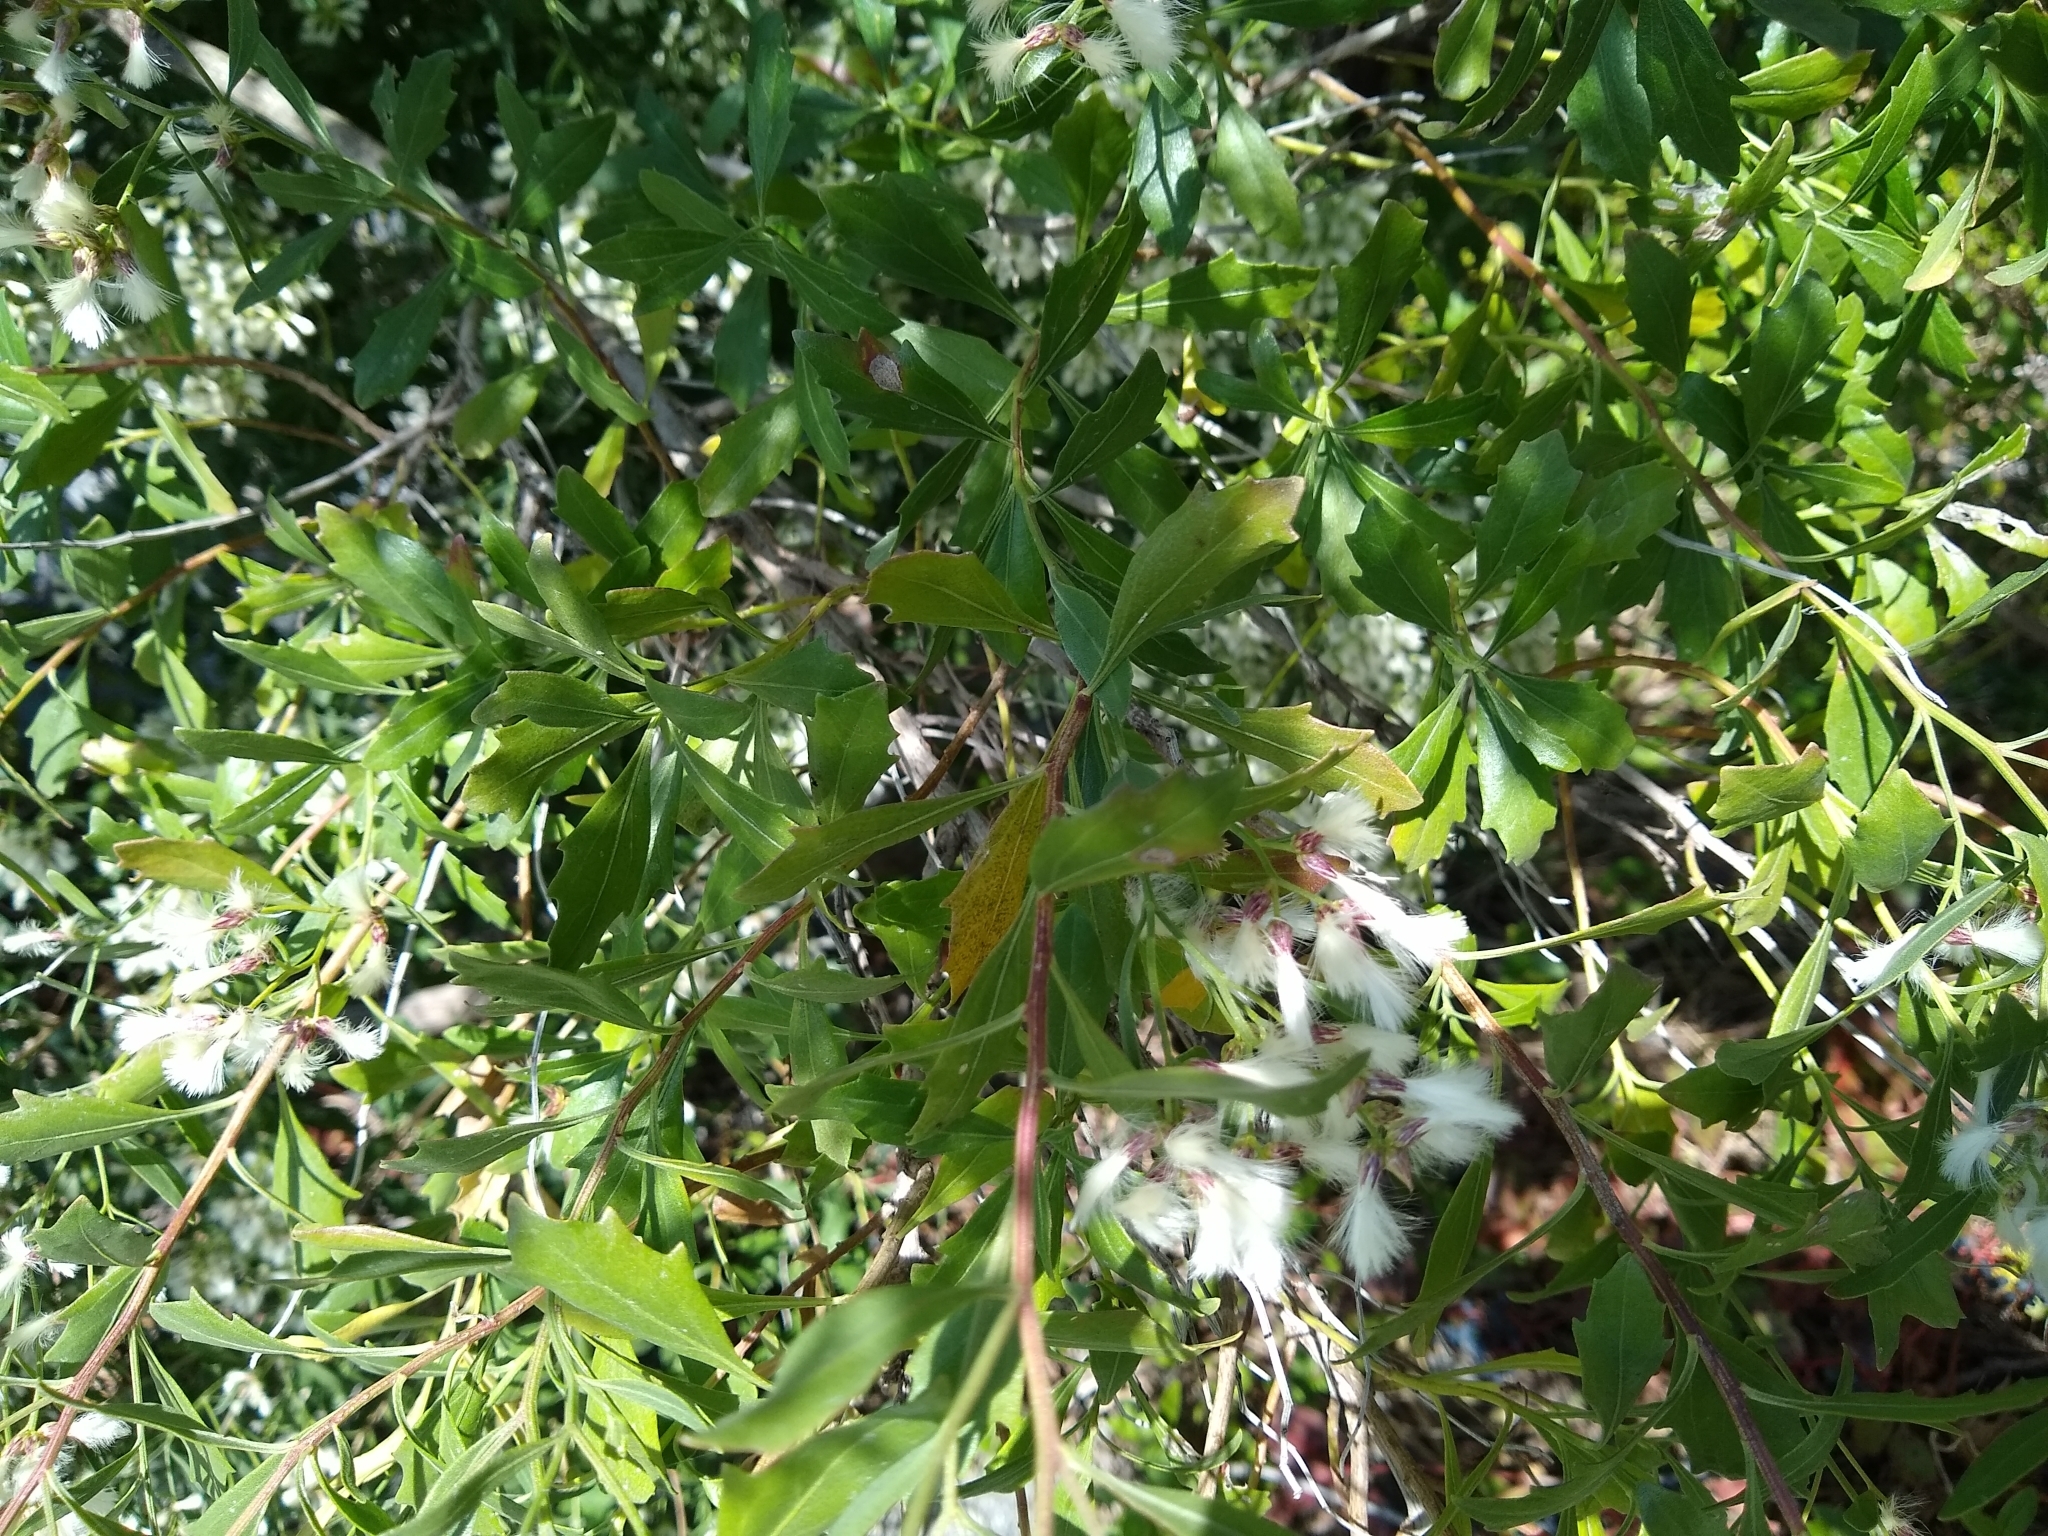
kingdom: Plantae
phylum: Tracheophyta
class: Magnoliopsida
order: Asterales
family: Asteraceae
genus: Baccharis
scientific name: Baccharis halimifolia
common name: Eastern baccharis
